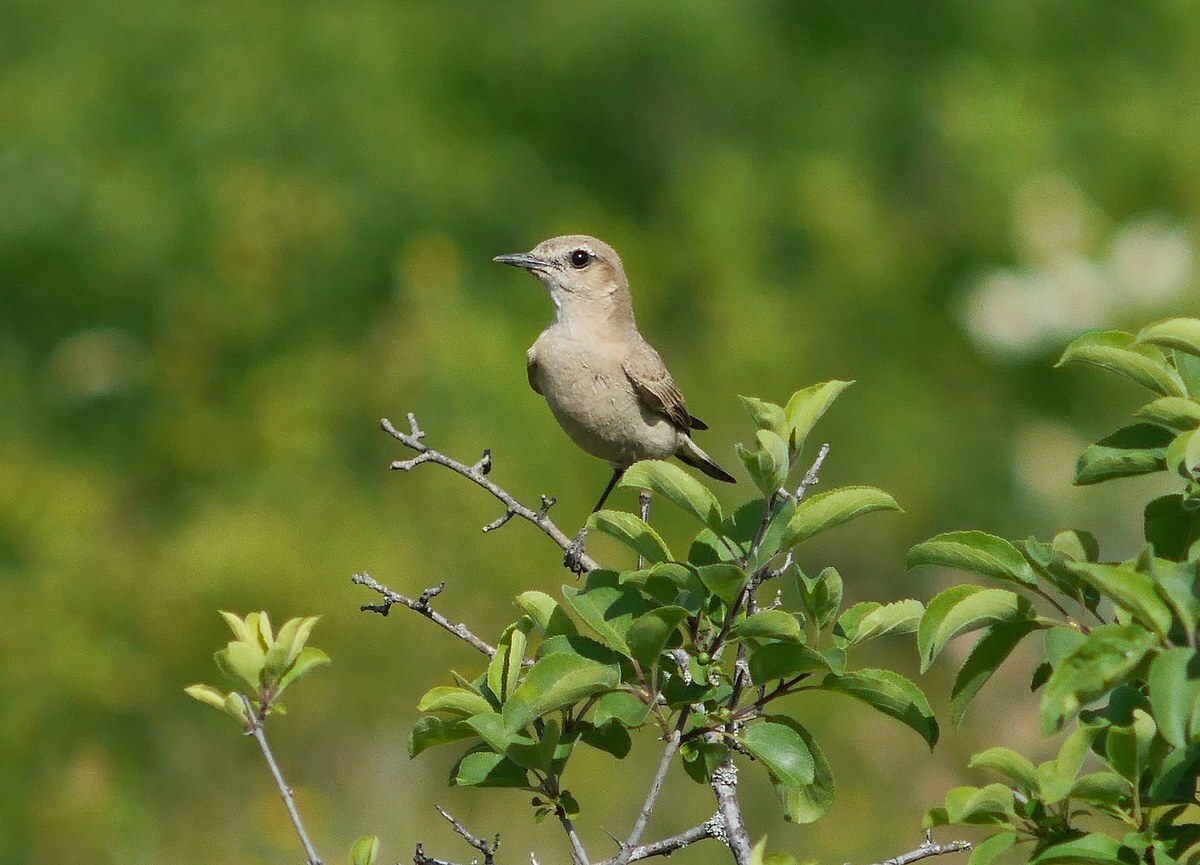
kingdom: Animalia
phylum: Chordata
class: Aves
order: Passeriformes
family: Muscicapidae
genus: Oenanthe
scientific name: Oenanthe isabellina
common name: Isabelline wheatear
